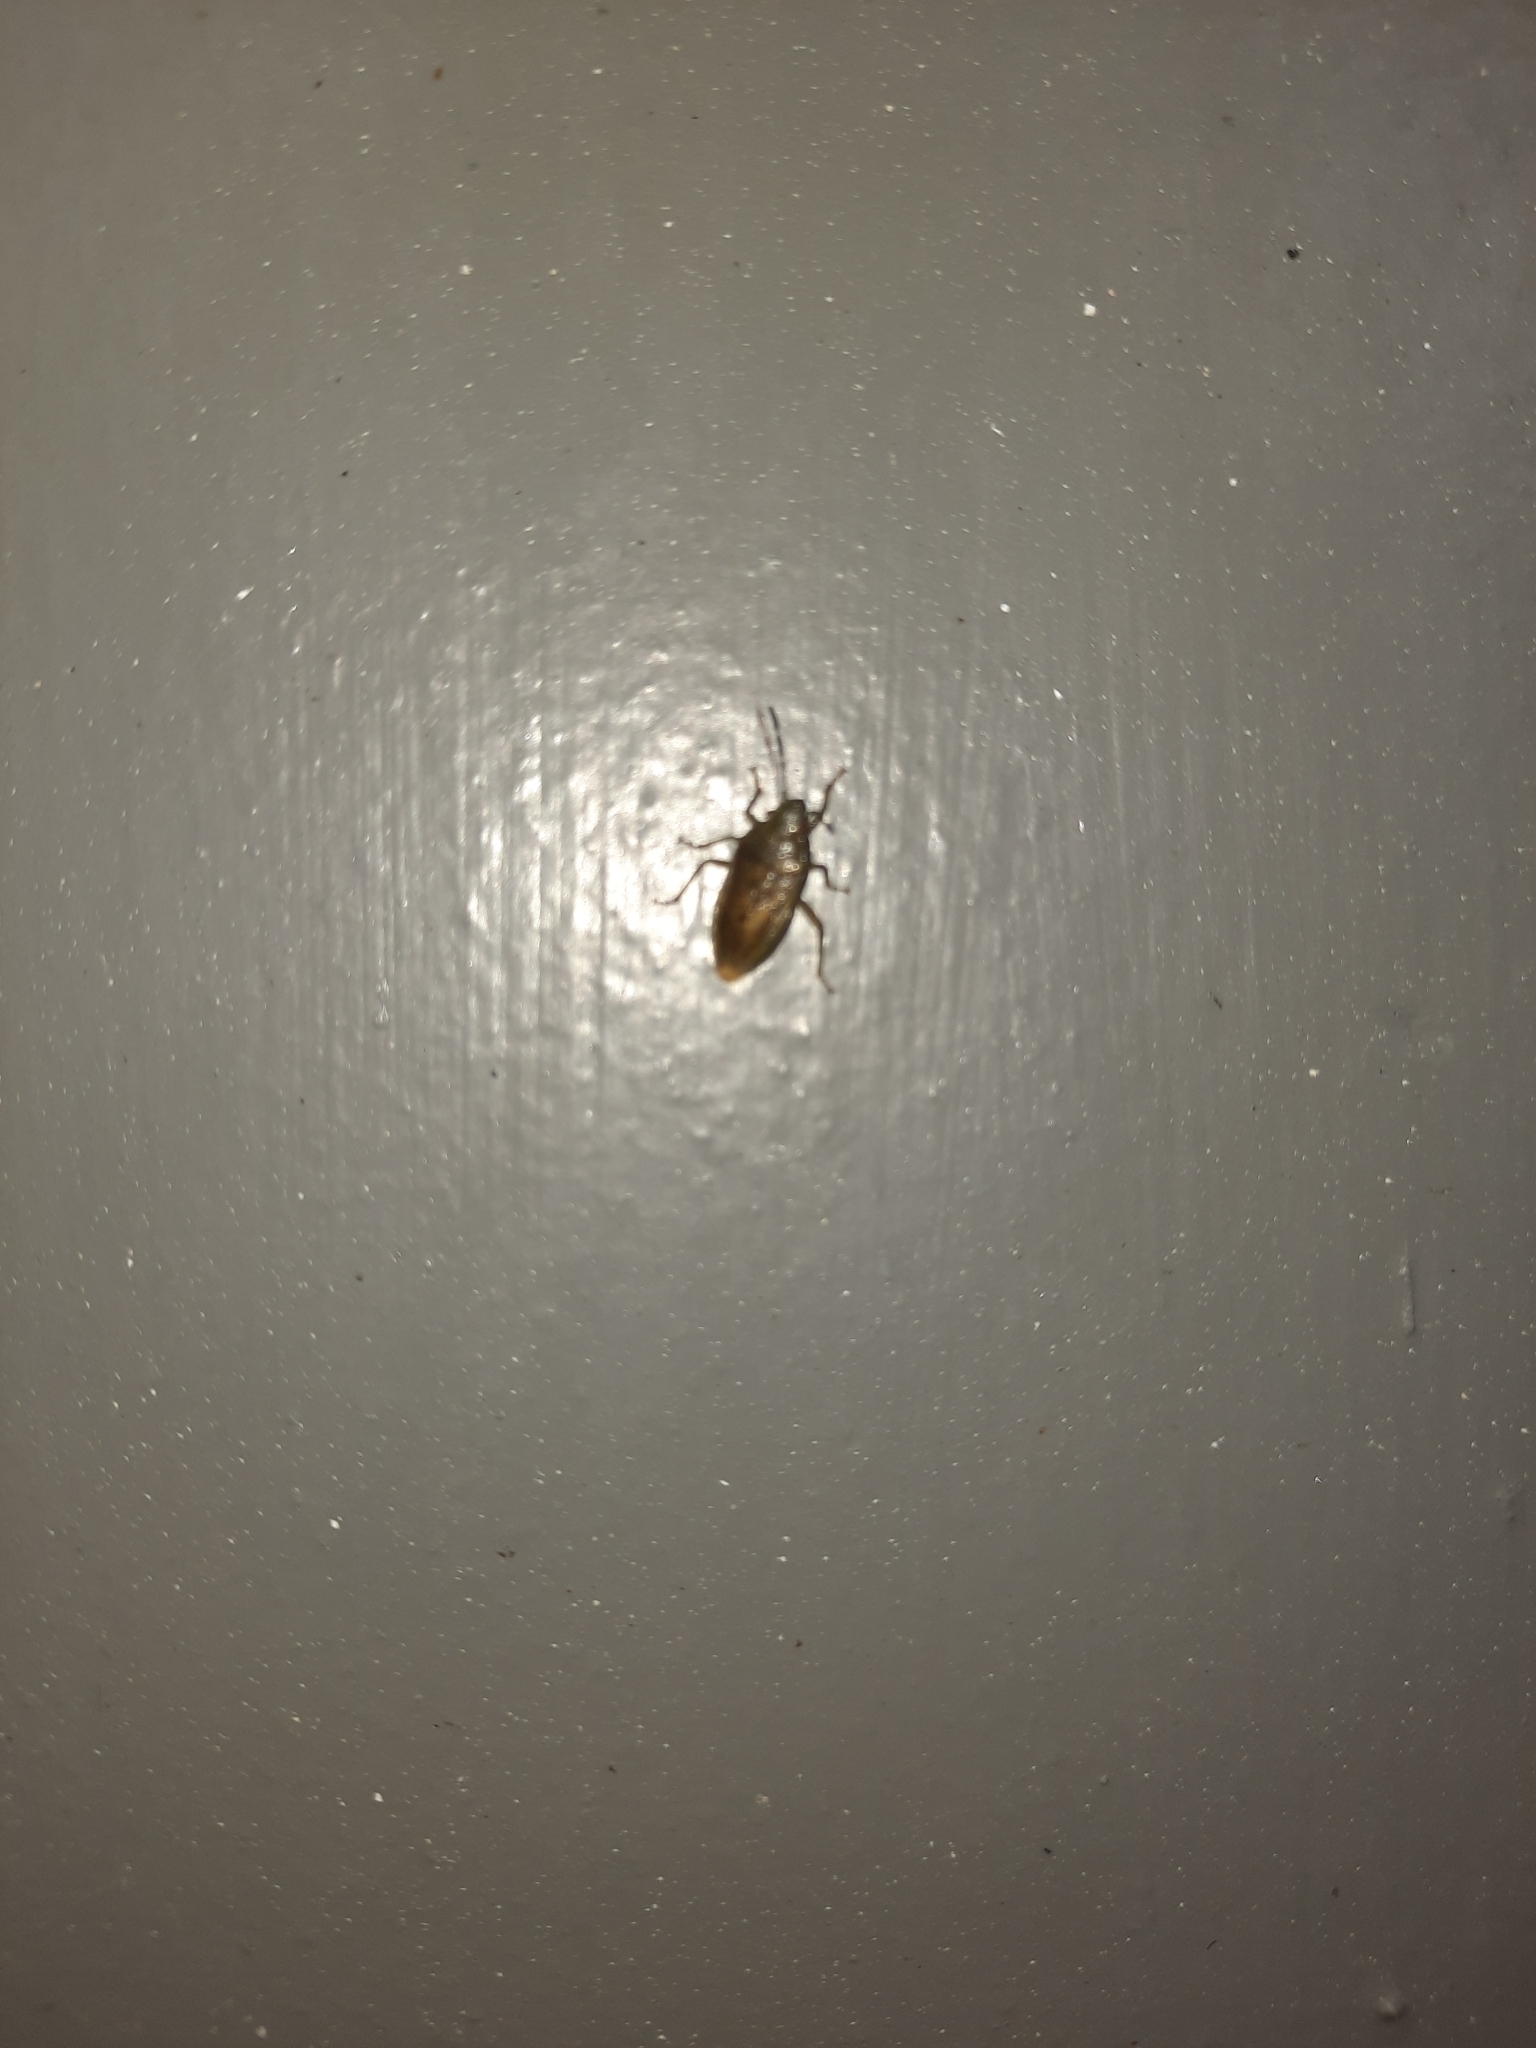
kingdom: Animalia
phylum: Arthropoda
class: Insecta
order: Hemiptera
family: Acanthosomatidae
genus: Rhopalimorpha
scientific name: Rhopalimorpha obscura
